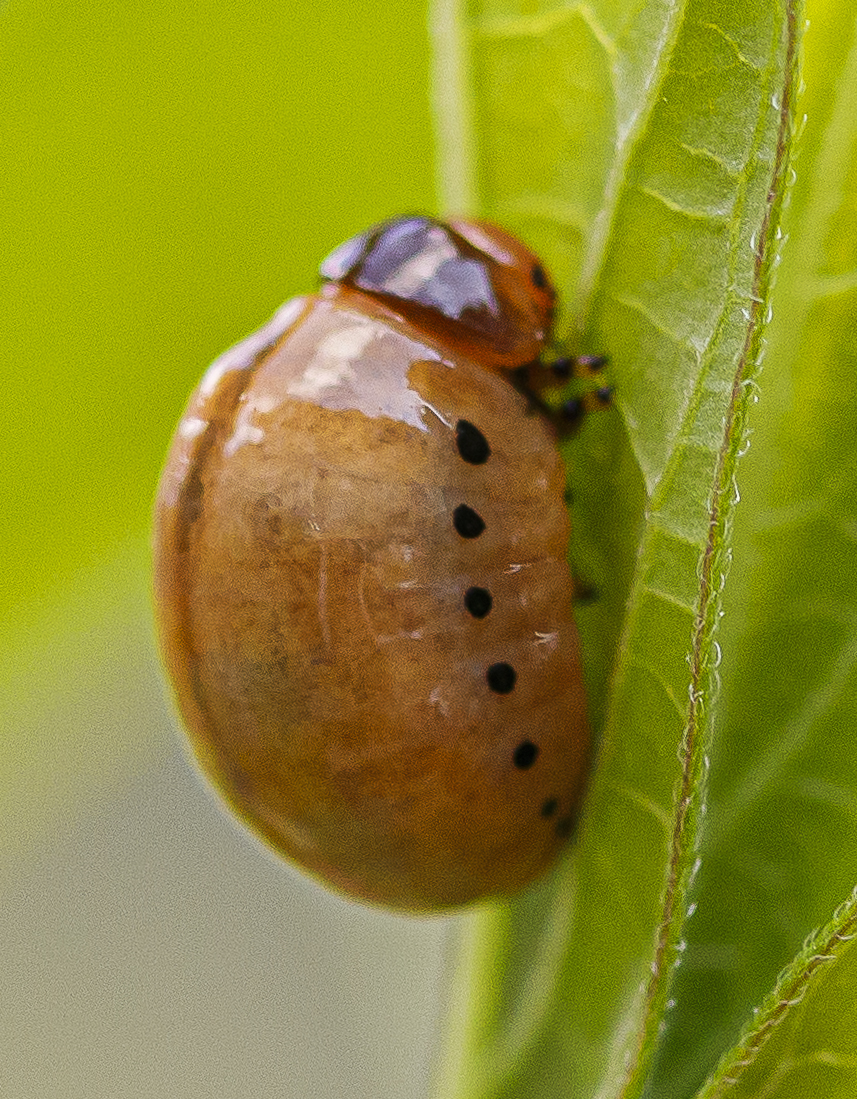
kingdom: Animalia
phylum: Arthropoda
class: Insecta
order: Coleoptera
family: Chrysomelidae
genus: Labidomera
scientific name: Labidomera clivicollis
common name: Swamp milkweed leaf beetle
